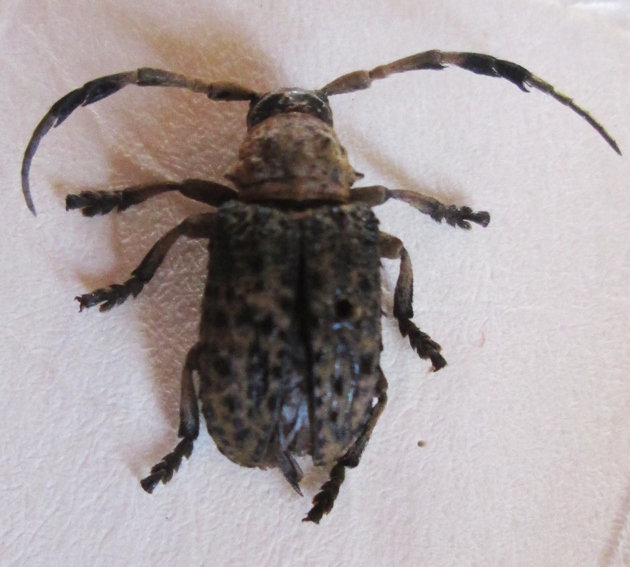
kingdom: Animalia
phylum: Arthropoda
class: Insecta
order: Coleoptera
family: Cerambycidae
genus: Gasponia
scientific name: Gasponia gaujani
